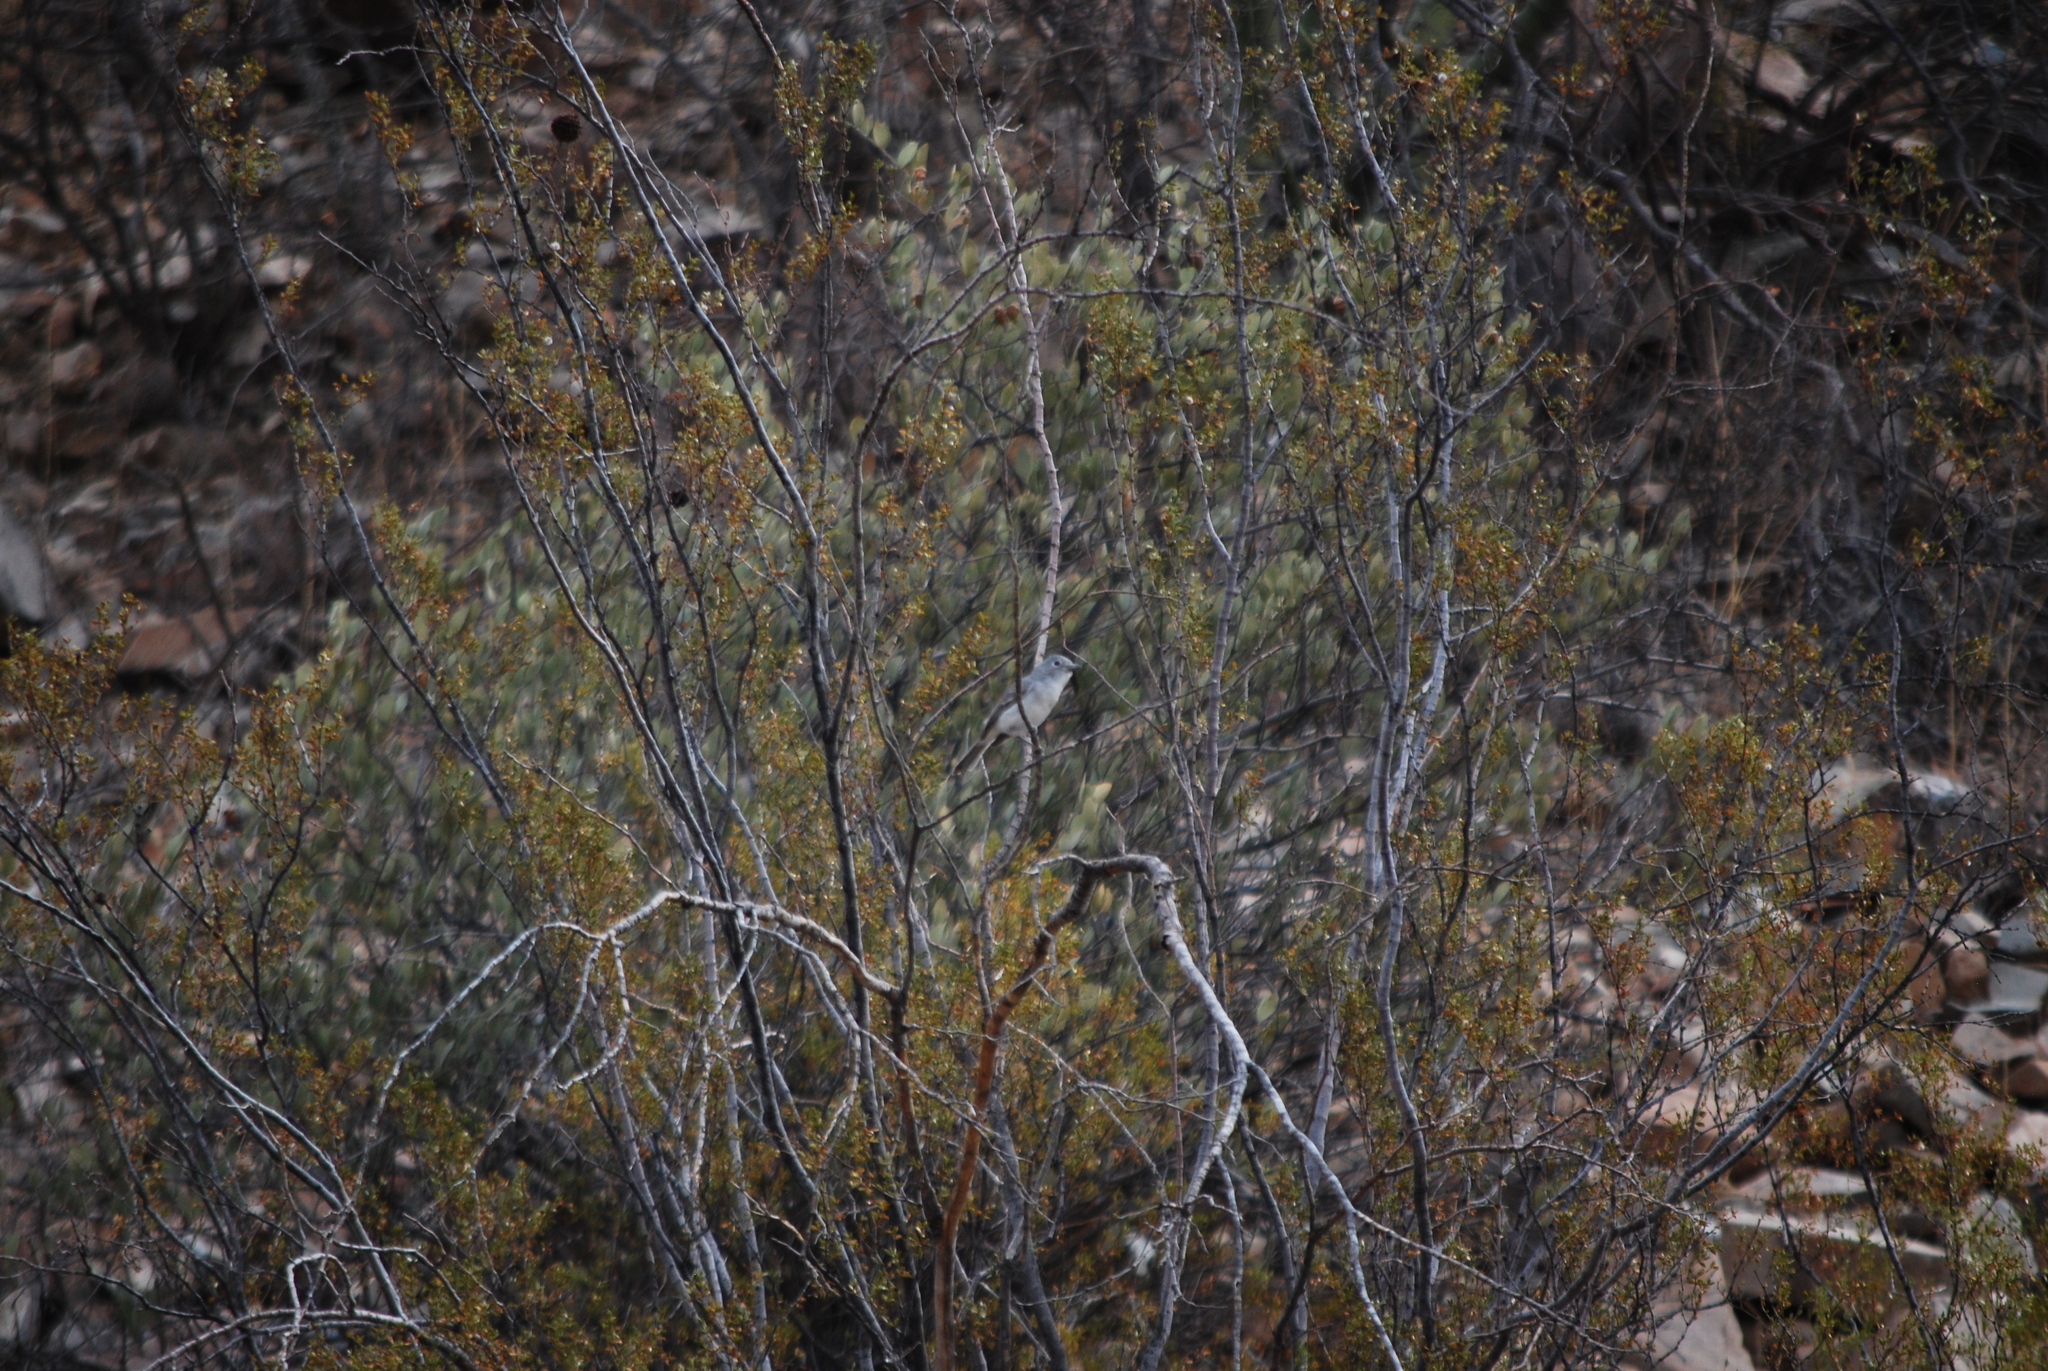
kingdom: Animalia
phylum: Chordata
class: Aves
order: Passeriformes
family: Vireonidae
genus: Vireo
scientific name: Vireo vicinior
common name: Gray vireo
